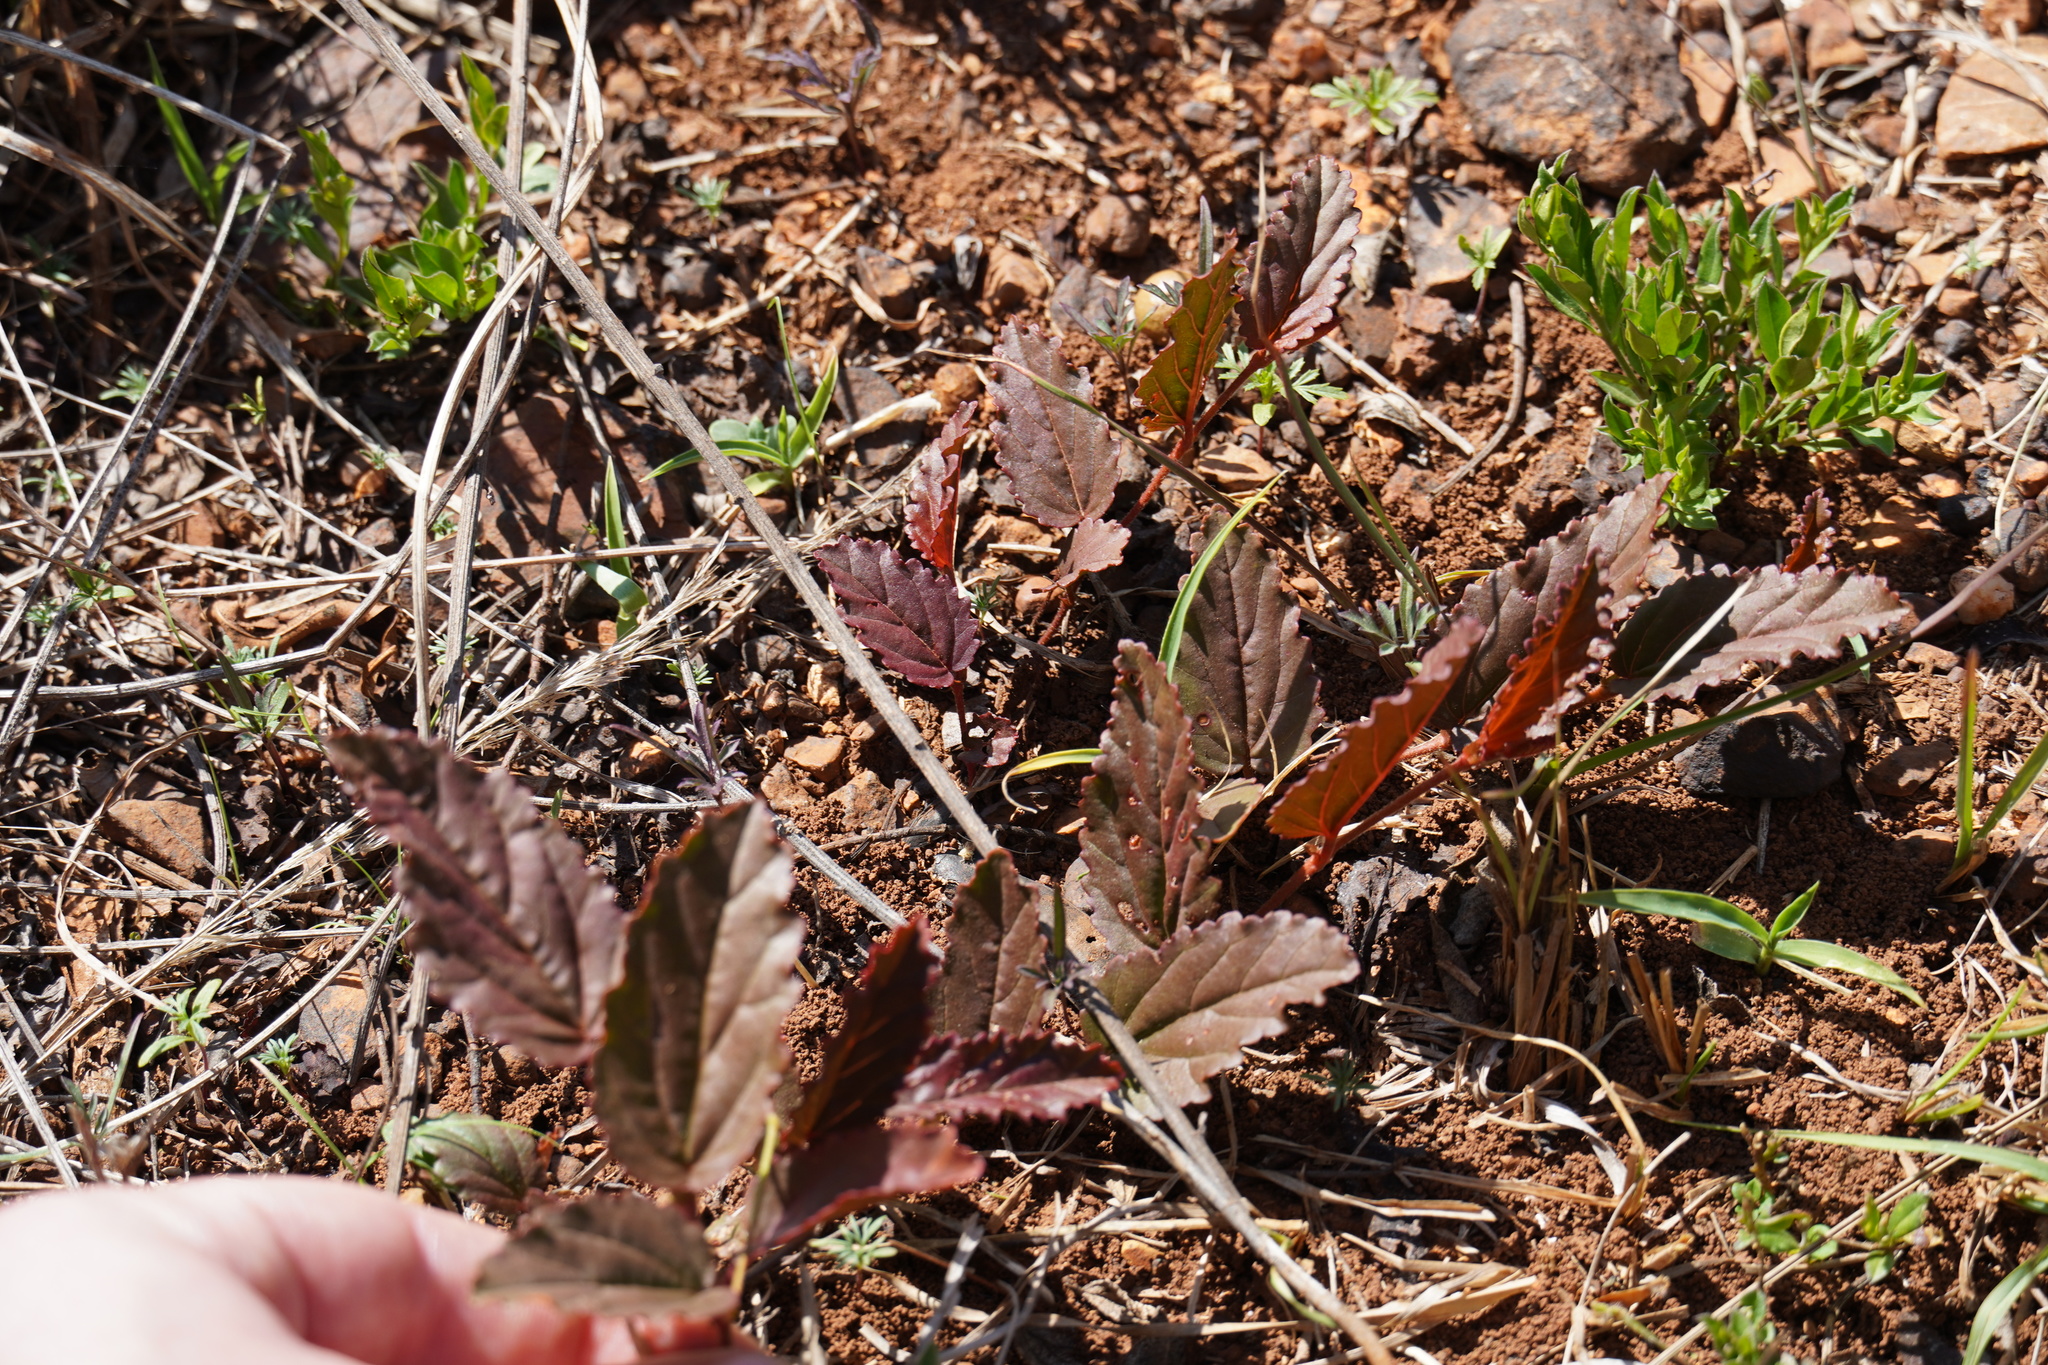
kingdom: Plantae
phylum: Tracheophyta
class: Magnoliopsida
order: Malvales
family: Malvaceae
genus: Hermannia
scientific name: Hermannia depressa
